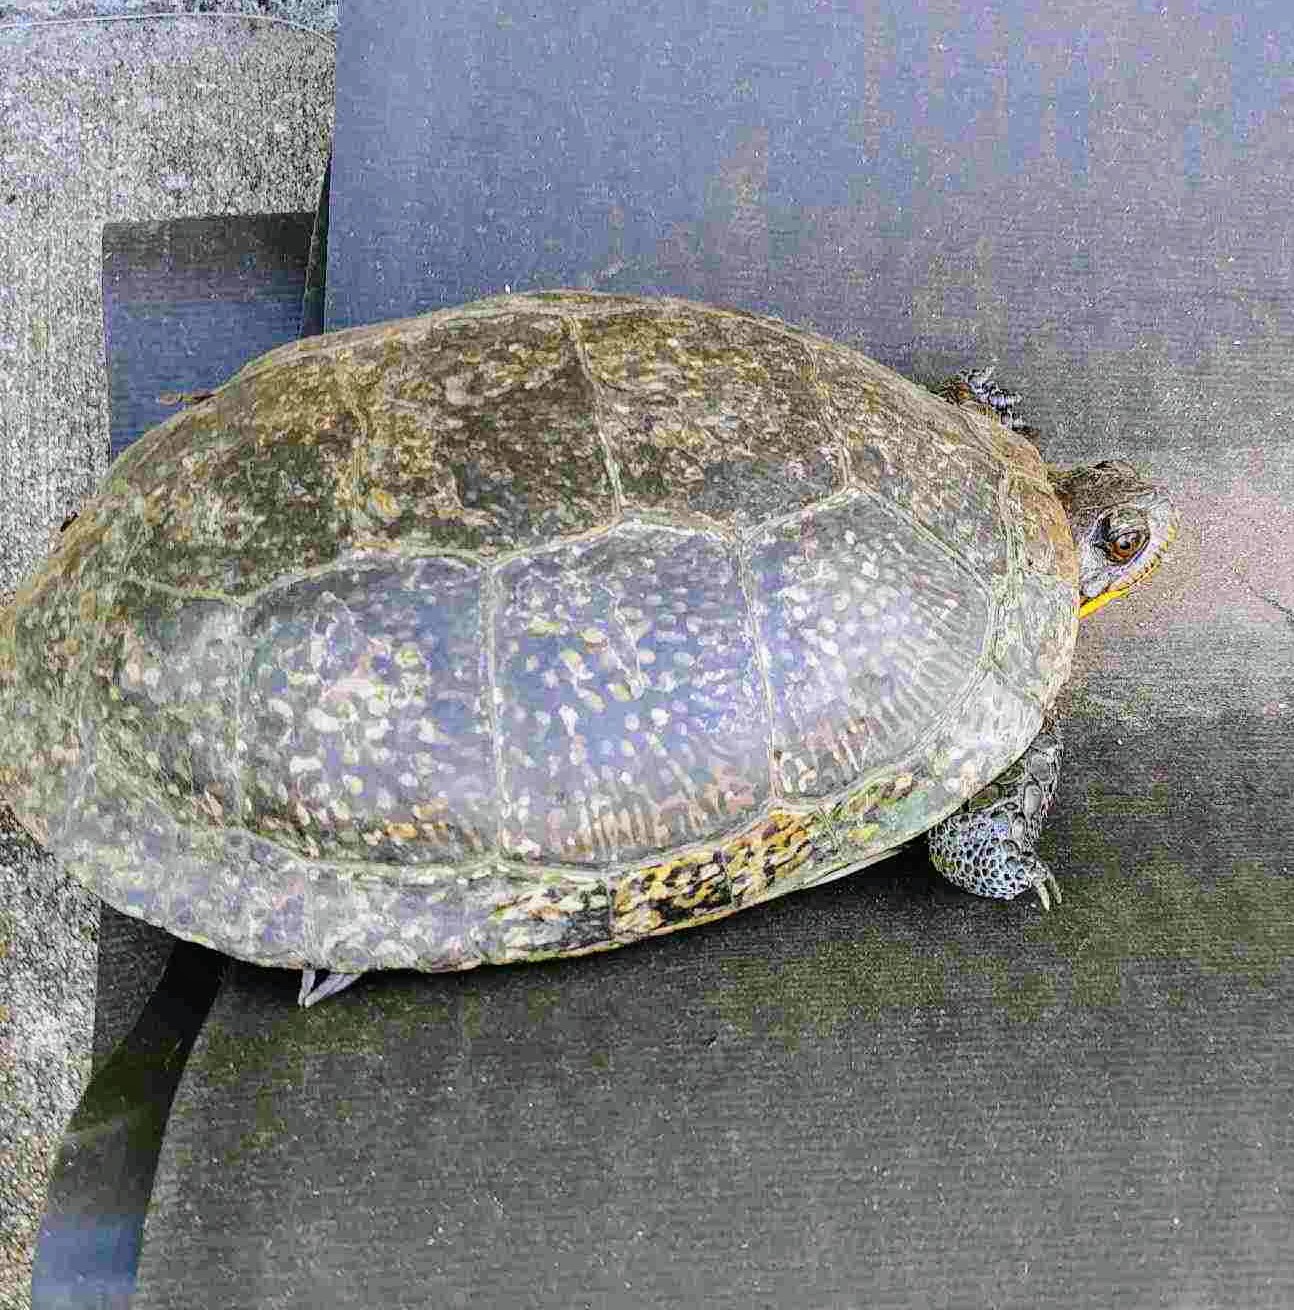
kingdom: Animalia
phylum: Chordata
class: Testudines
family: Emydidae
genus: Emys
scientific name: Emys blandingii
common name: Blanding's turtle
